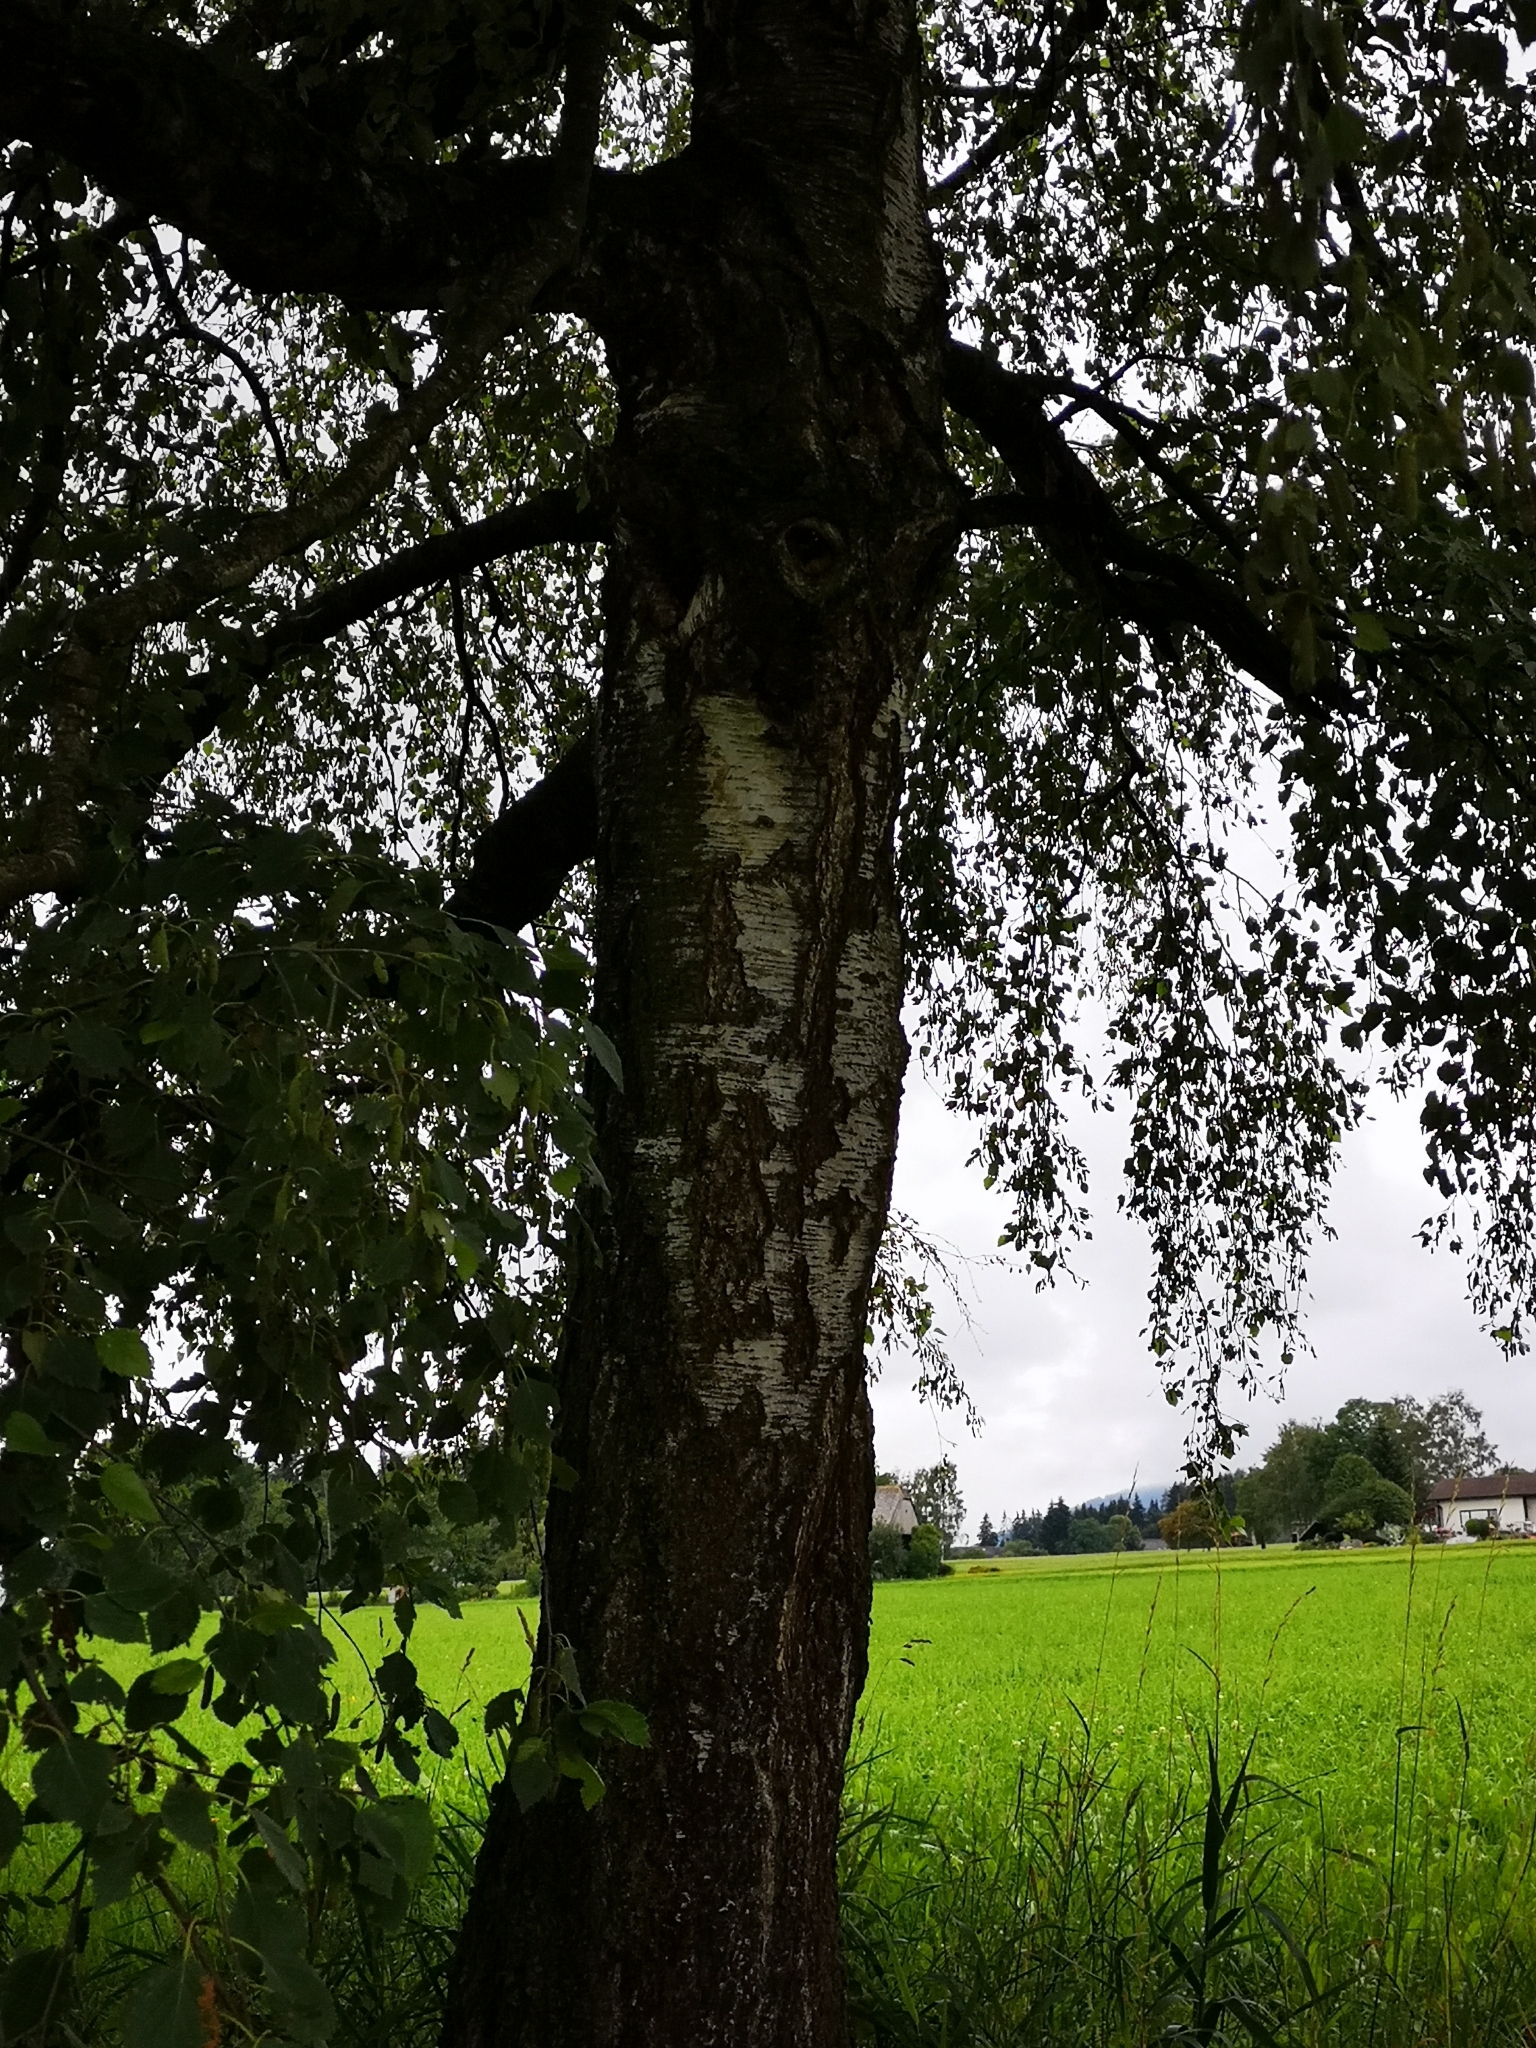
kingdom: Plantae
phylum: Tracheophyta
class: Magnoliopsida
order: Fagales
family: Betulaceae
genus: Betula
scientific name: Betula pendula
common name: Silver birch
